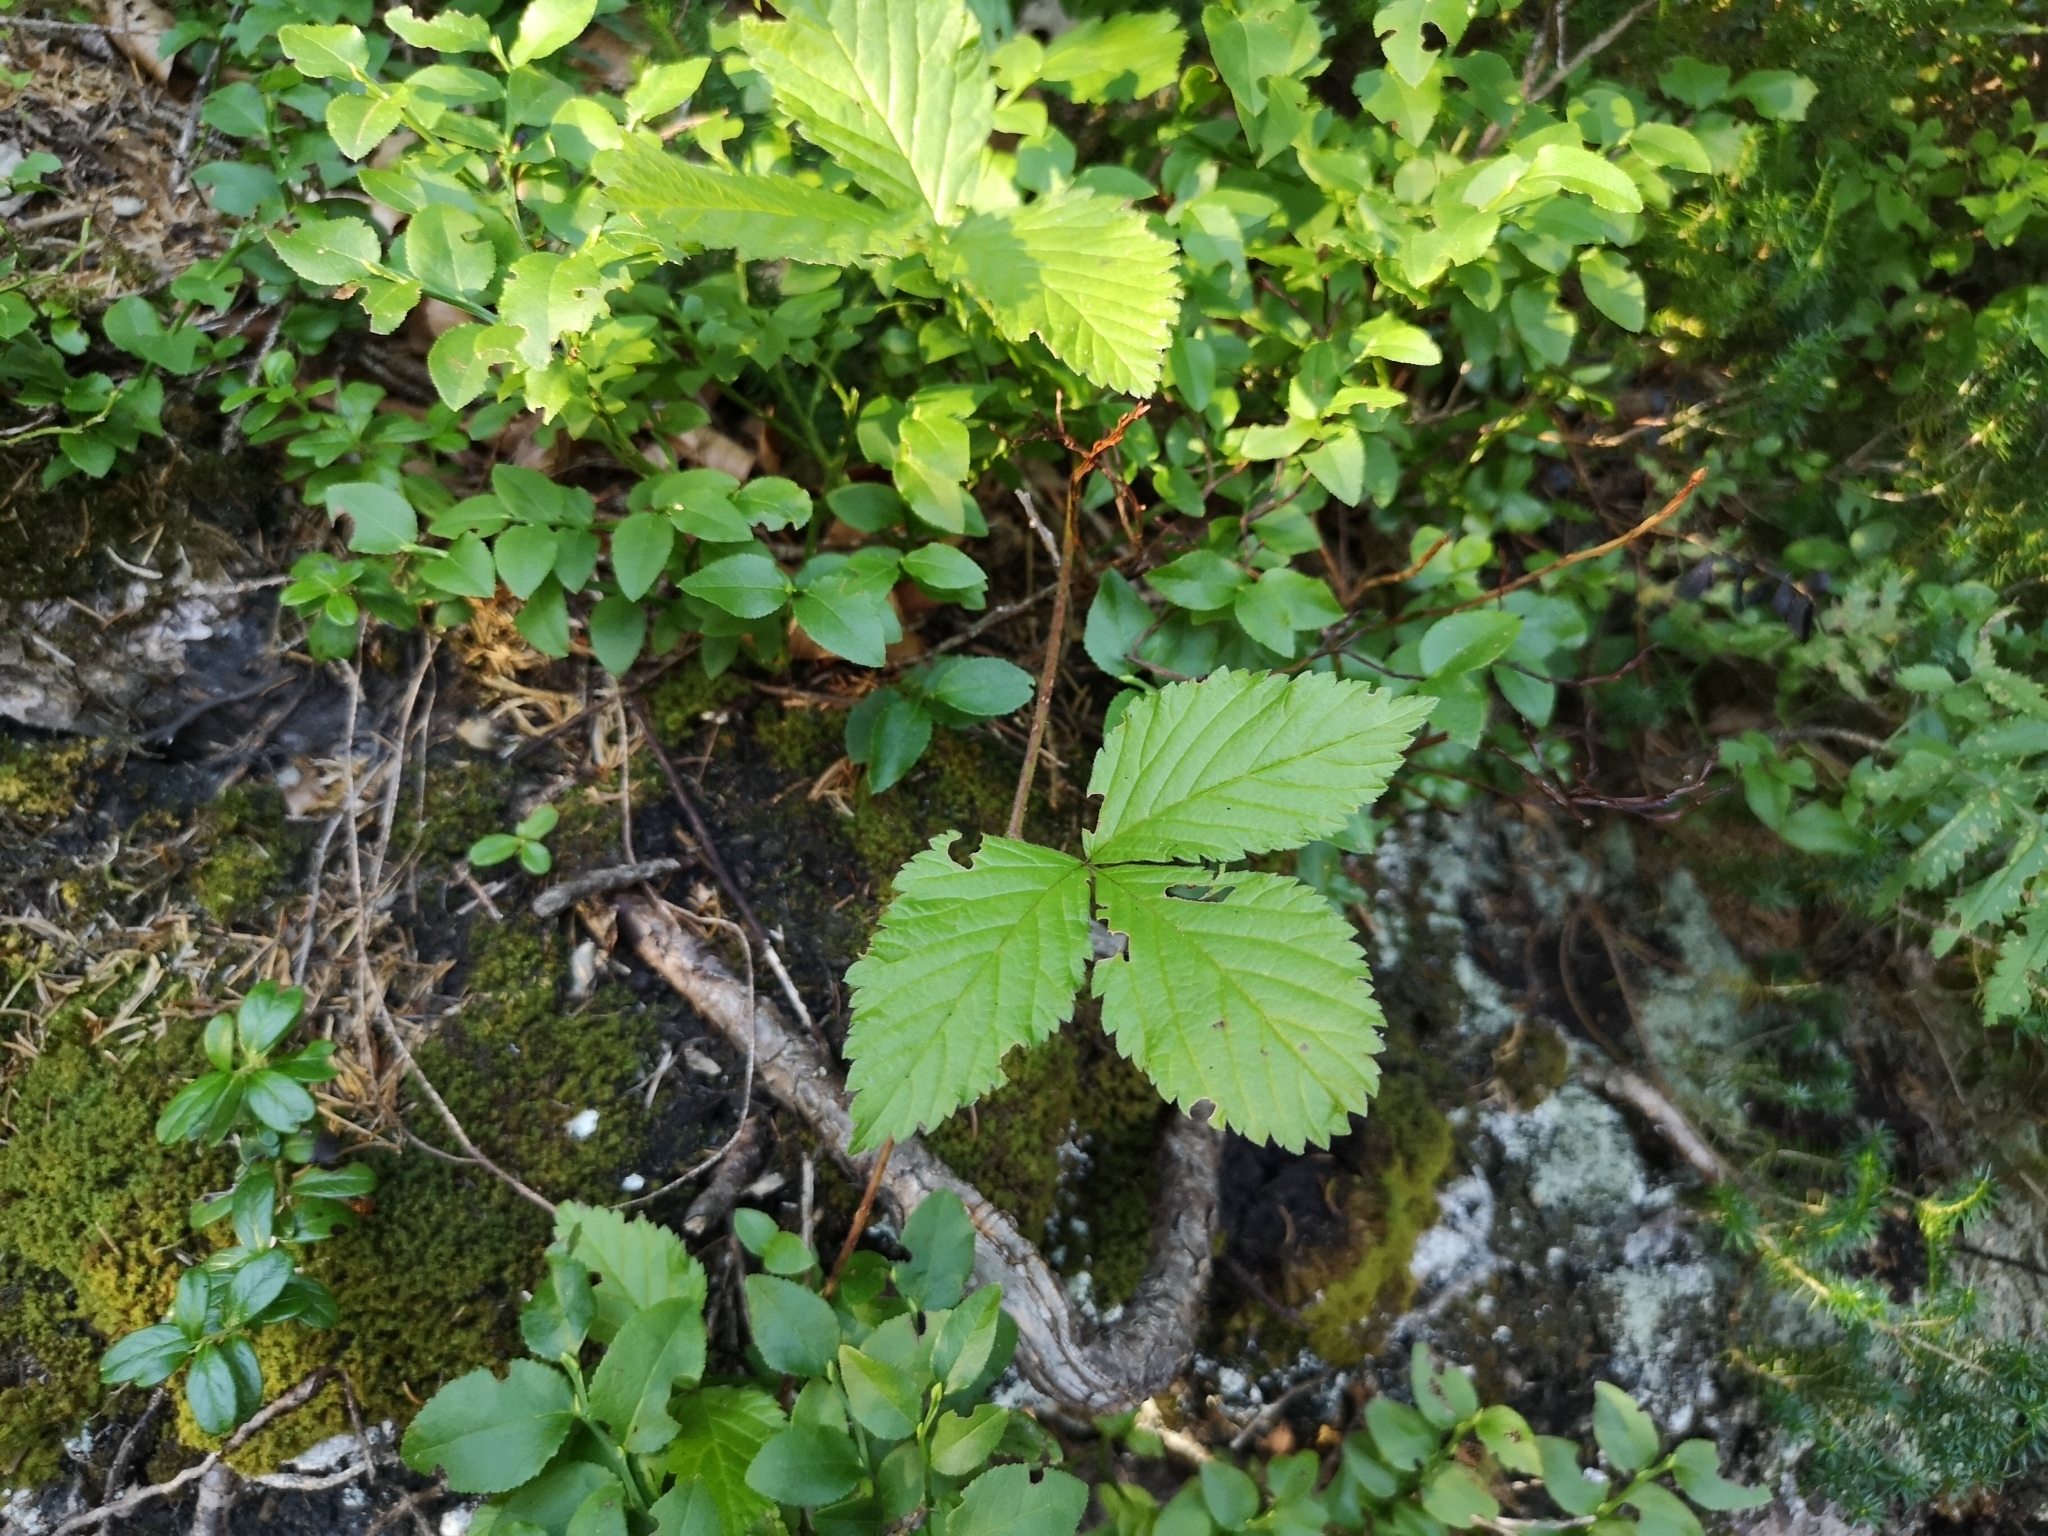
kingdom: Plantae
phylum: Tracheophyta
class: Magnoliopsida
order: Rosales
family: Rosaceae
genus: Rubus
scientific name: Rubus saxatilis
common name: Stone bramble
